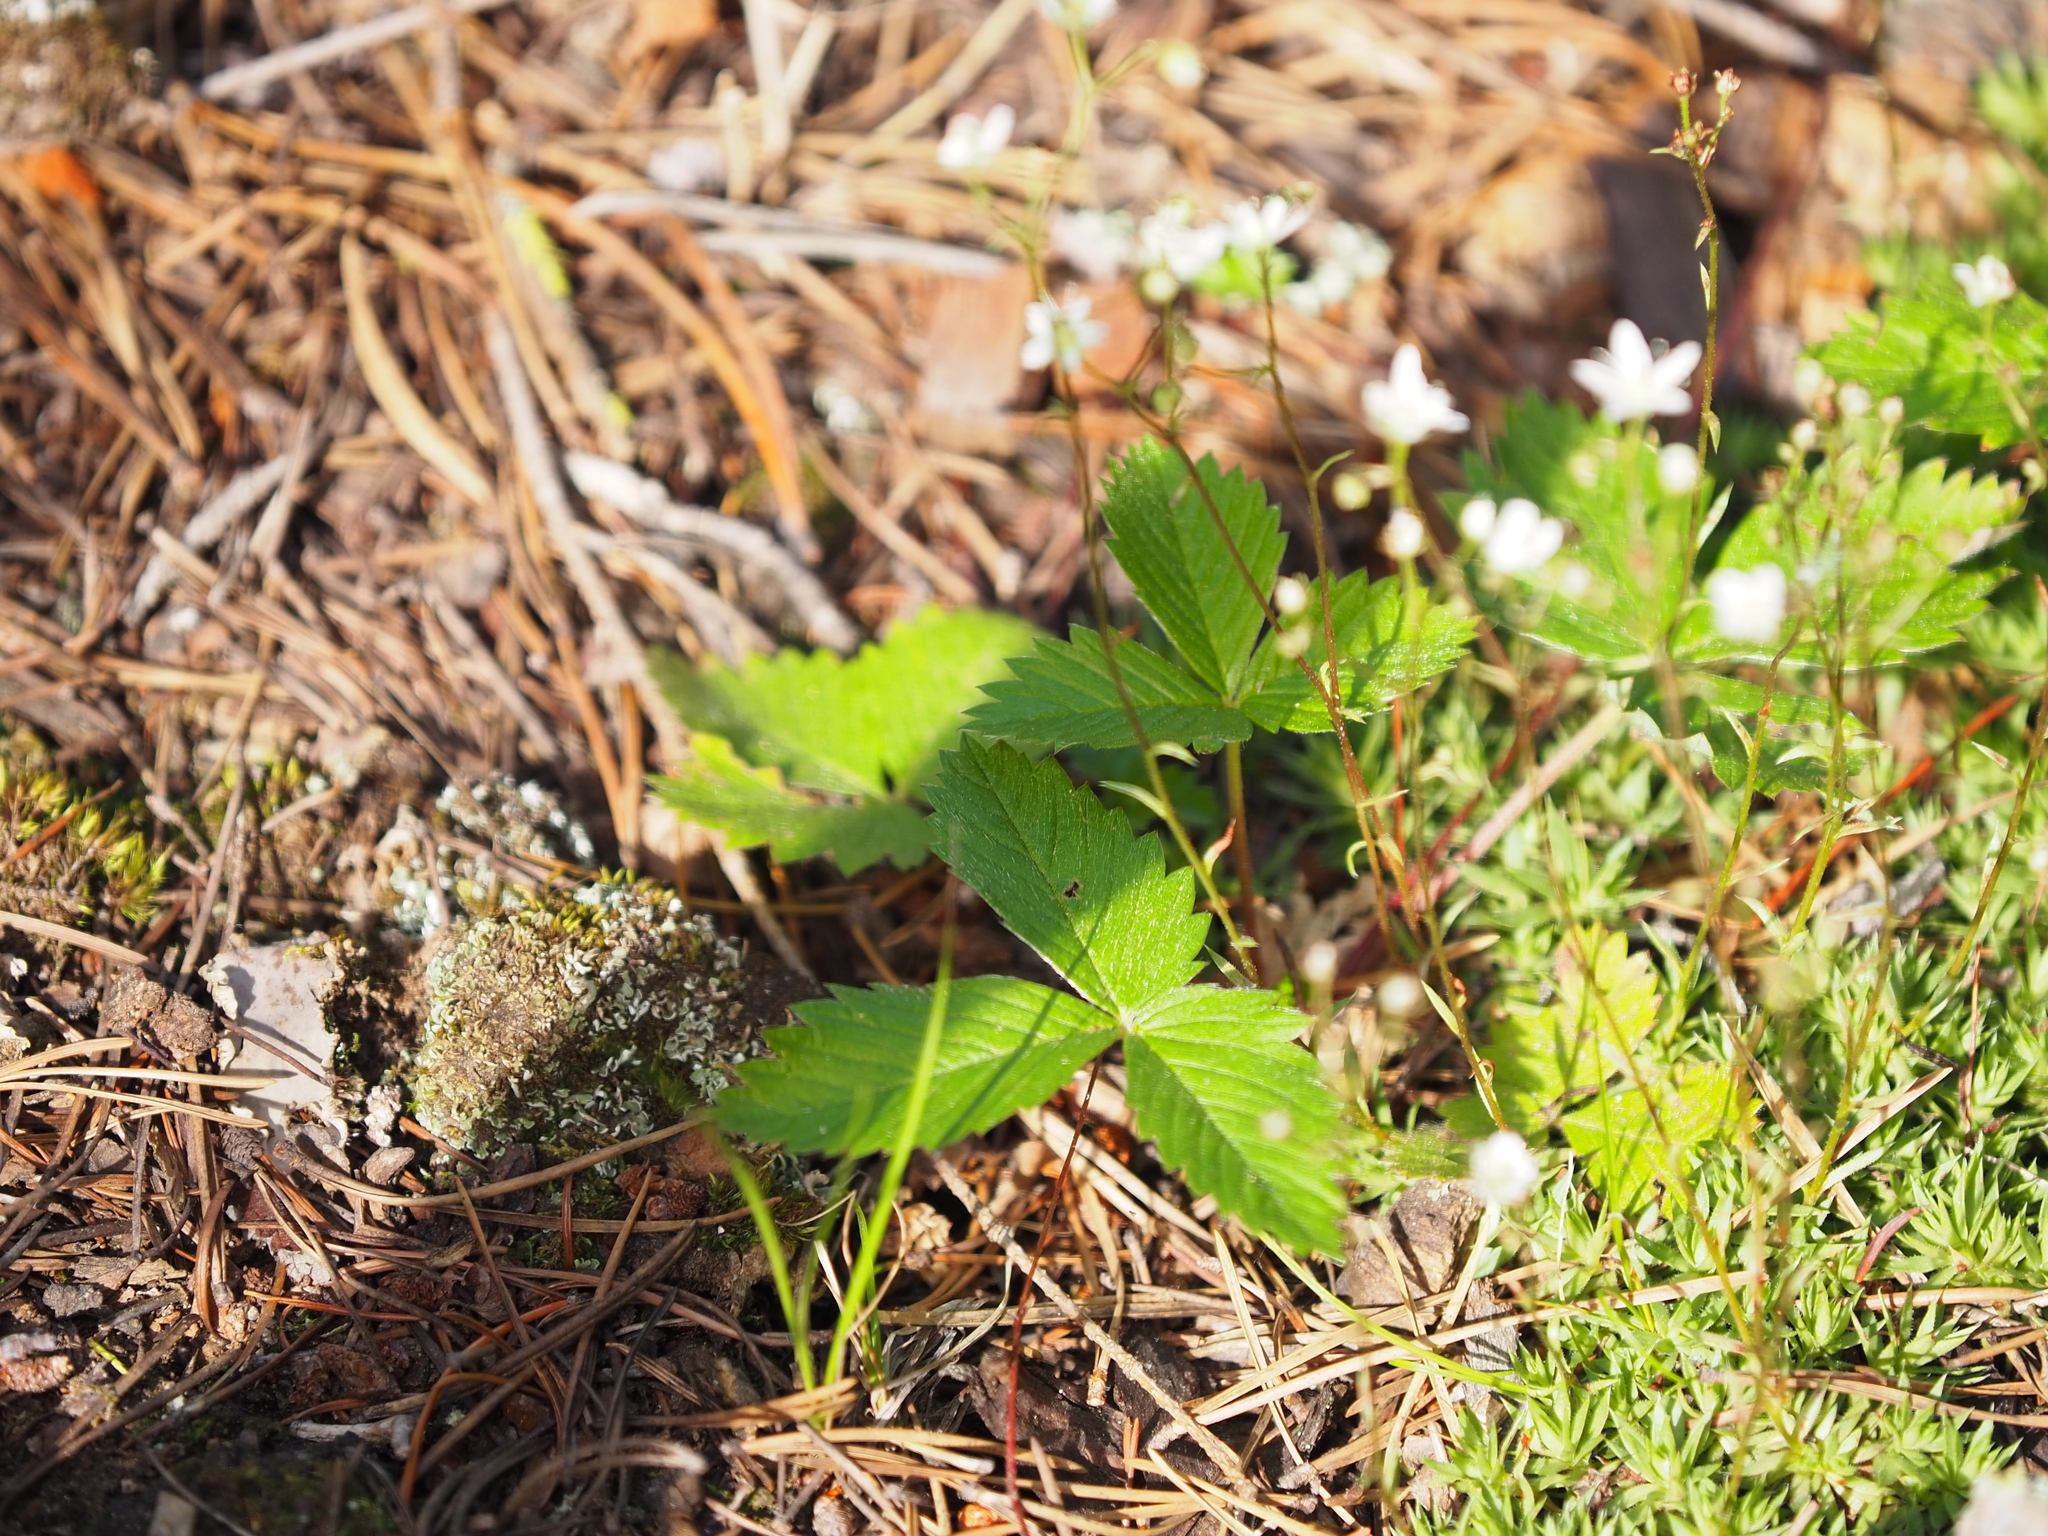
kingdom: Plantae
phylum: Tracheophyta
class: Magnoliopsida
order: Rosales
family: Rosaceae
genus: Fragaria
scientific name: Fragaria vesca
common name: Wild strawberry
